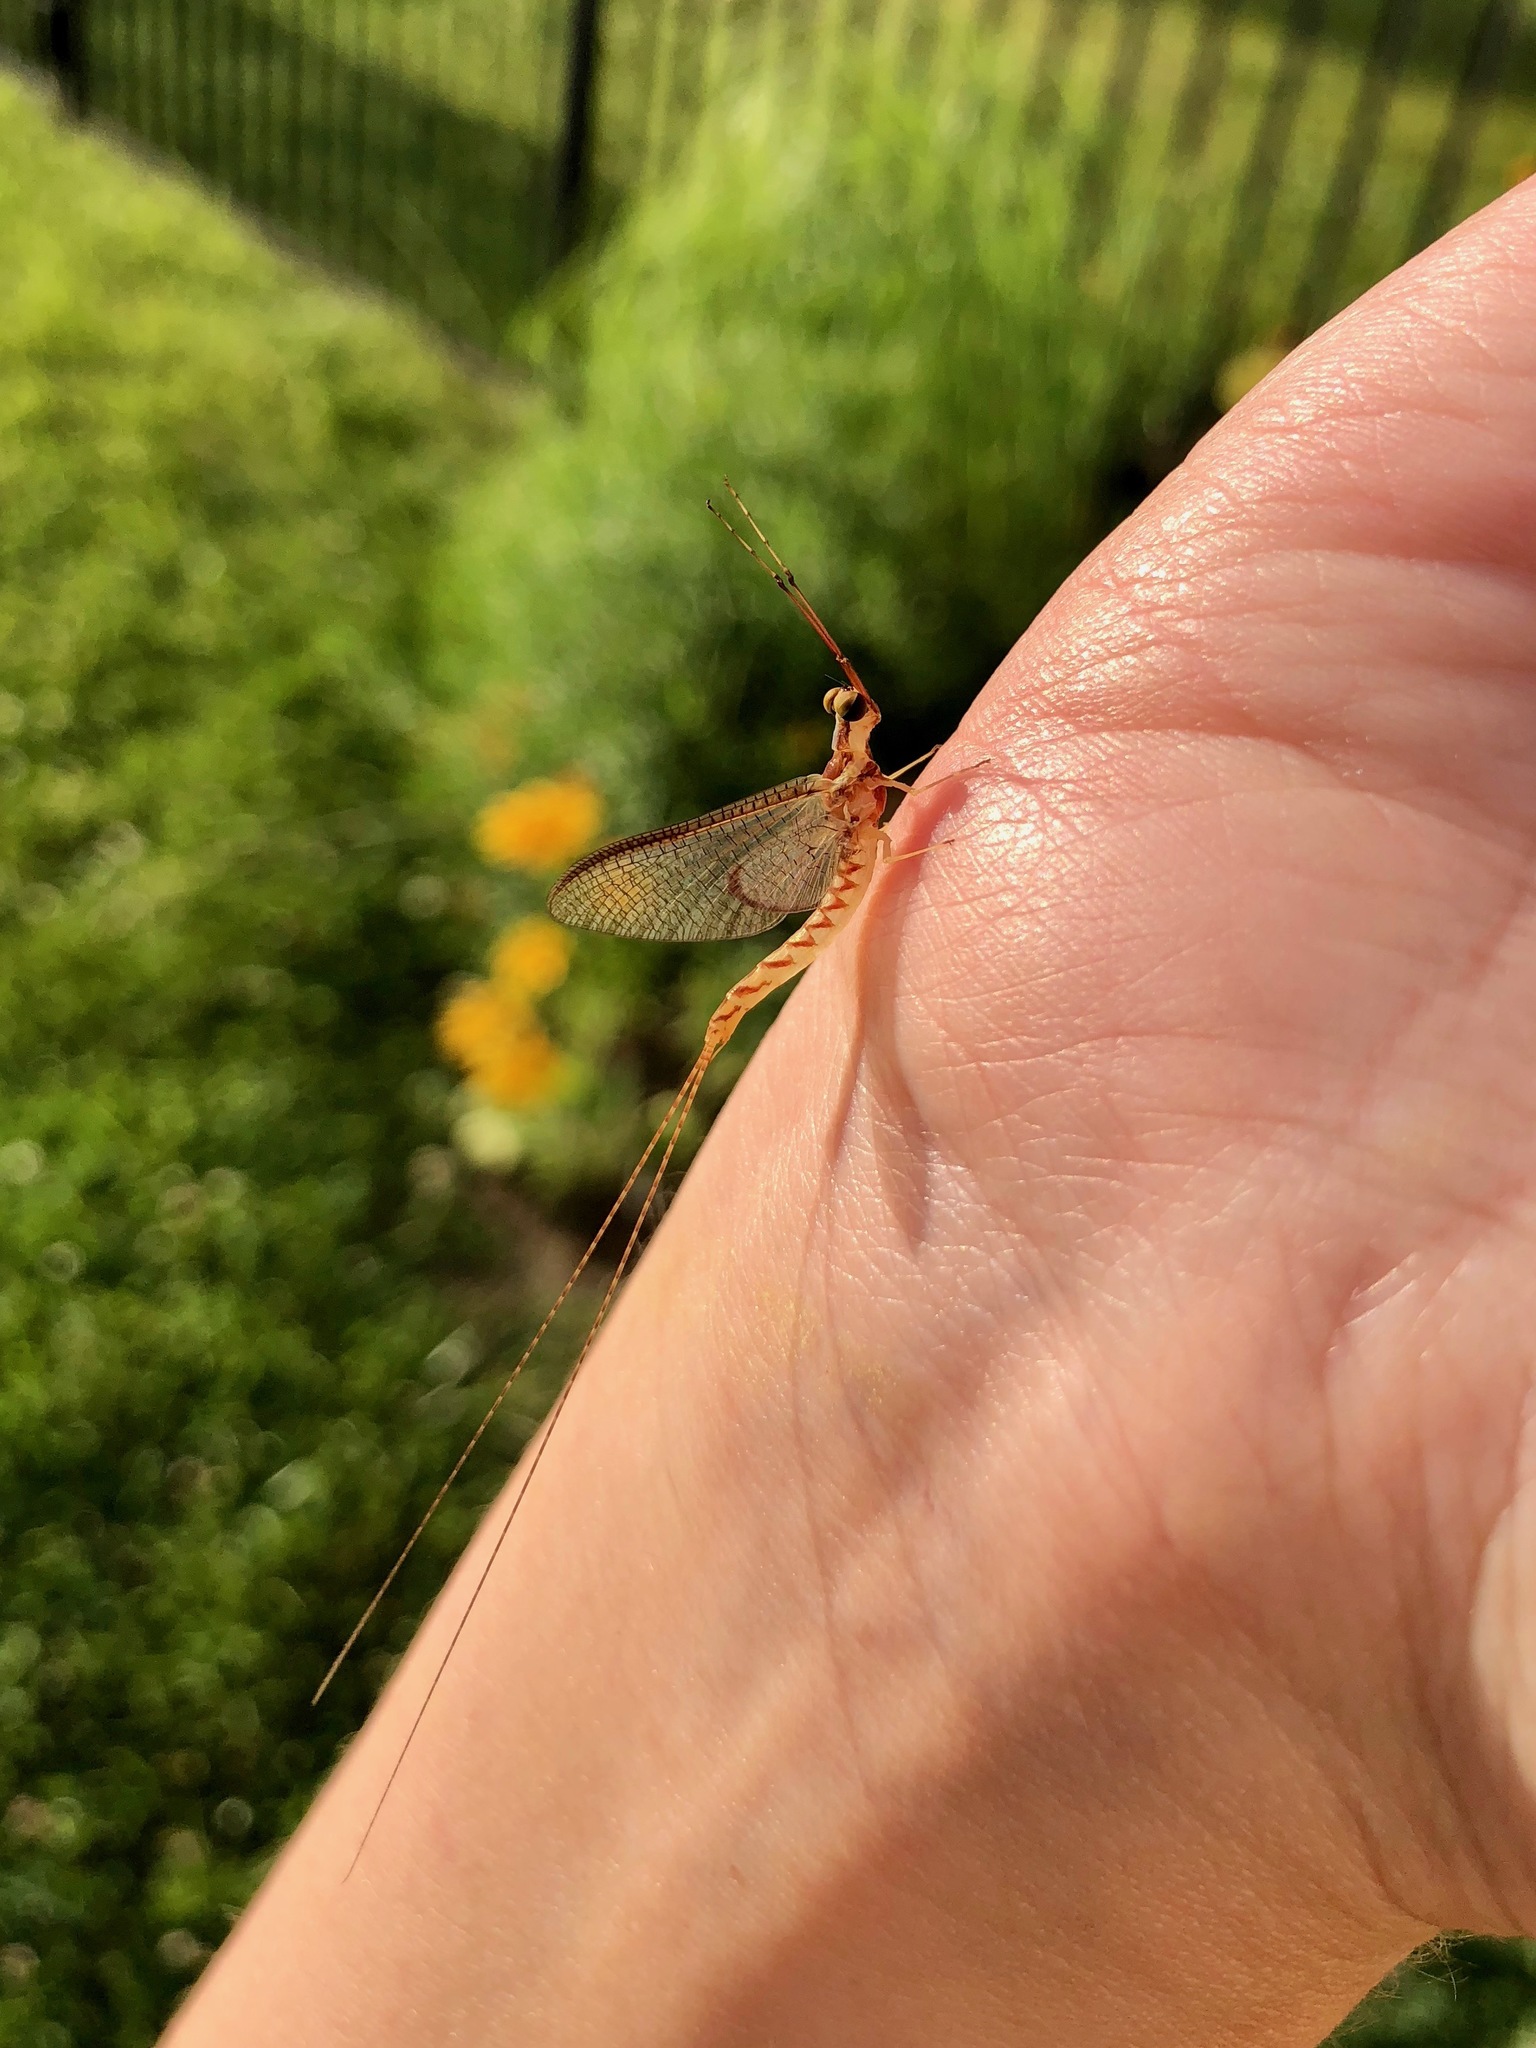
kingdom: Animalia
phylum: Arthropoda
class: Insecta
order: Ephemeroptera
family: Ephemeridae
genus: Hexagenia
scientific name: Hexagenia bilineata
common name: Emergent mayfly
